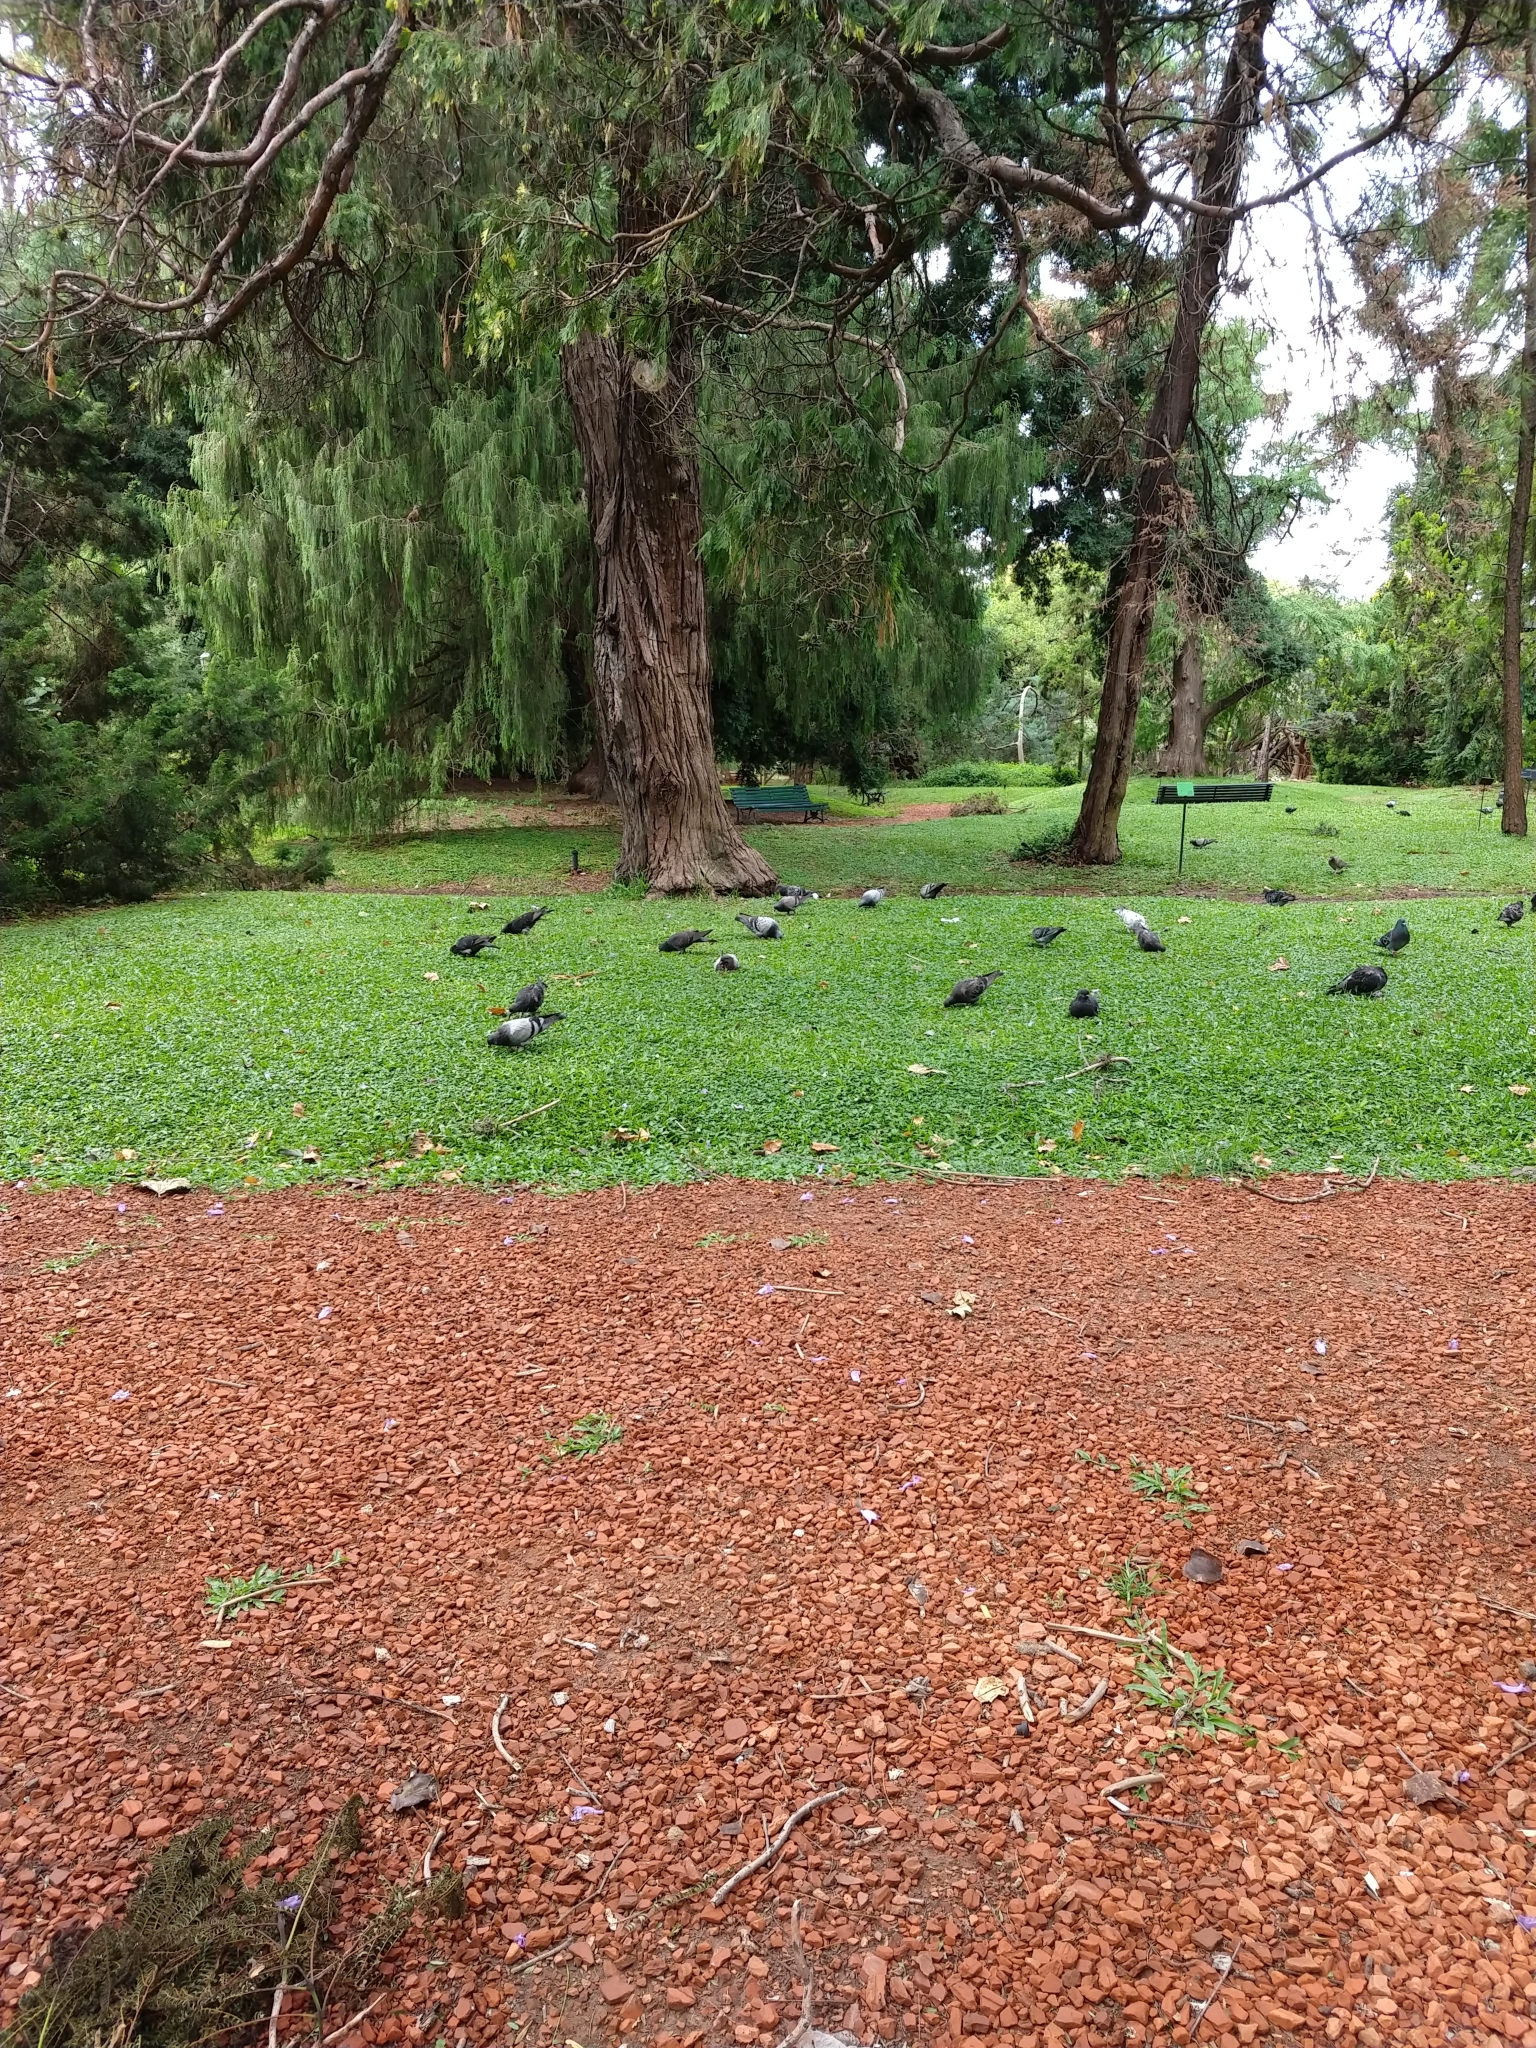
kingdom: Animalia
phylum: Chordata
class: Aves
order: Columbiformes
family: Columbidae
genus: Columba
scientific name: Columba livia
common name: Rock pigeon
